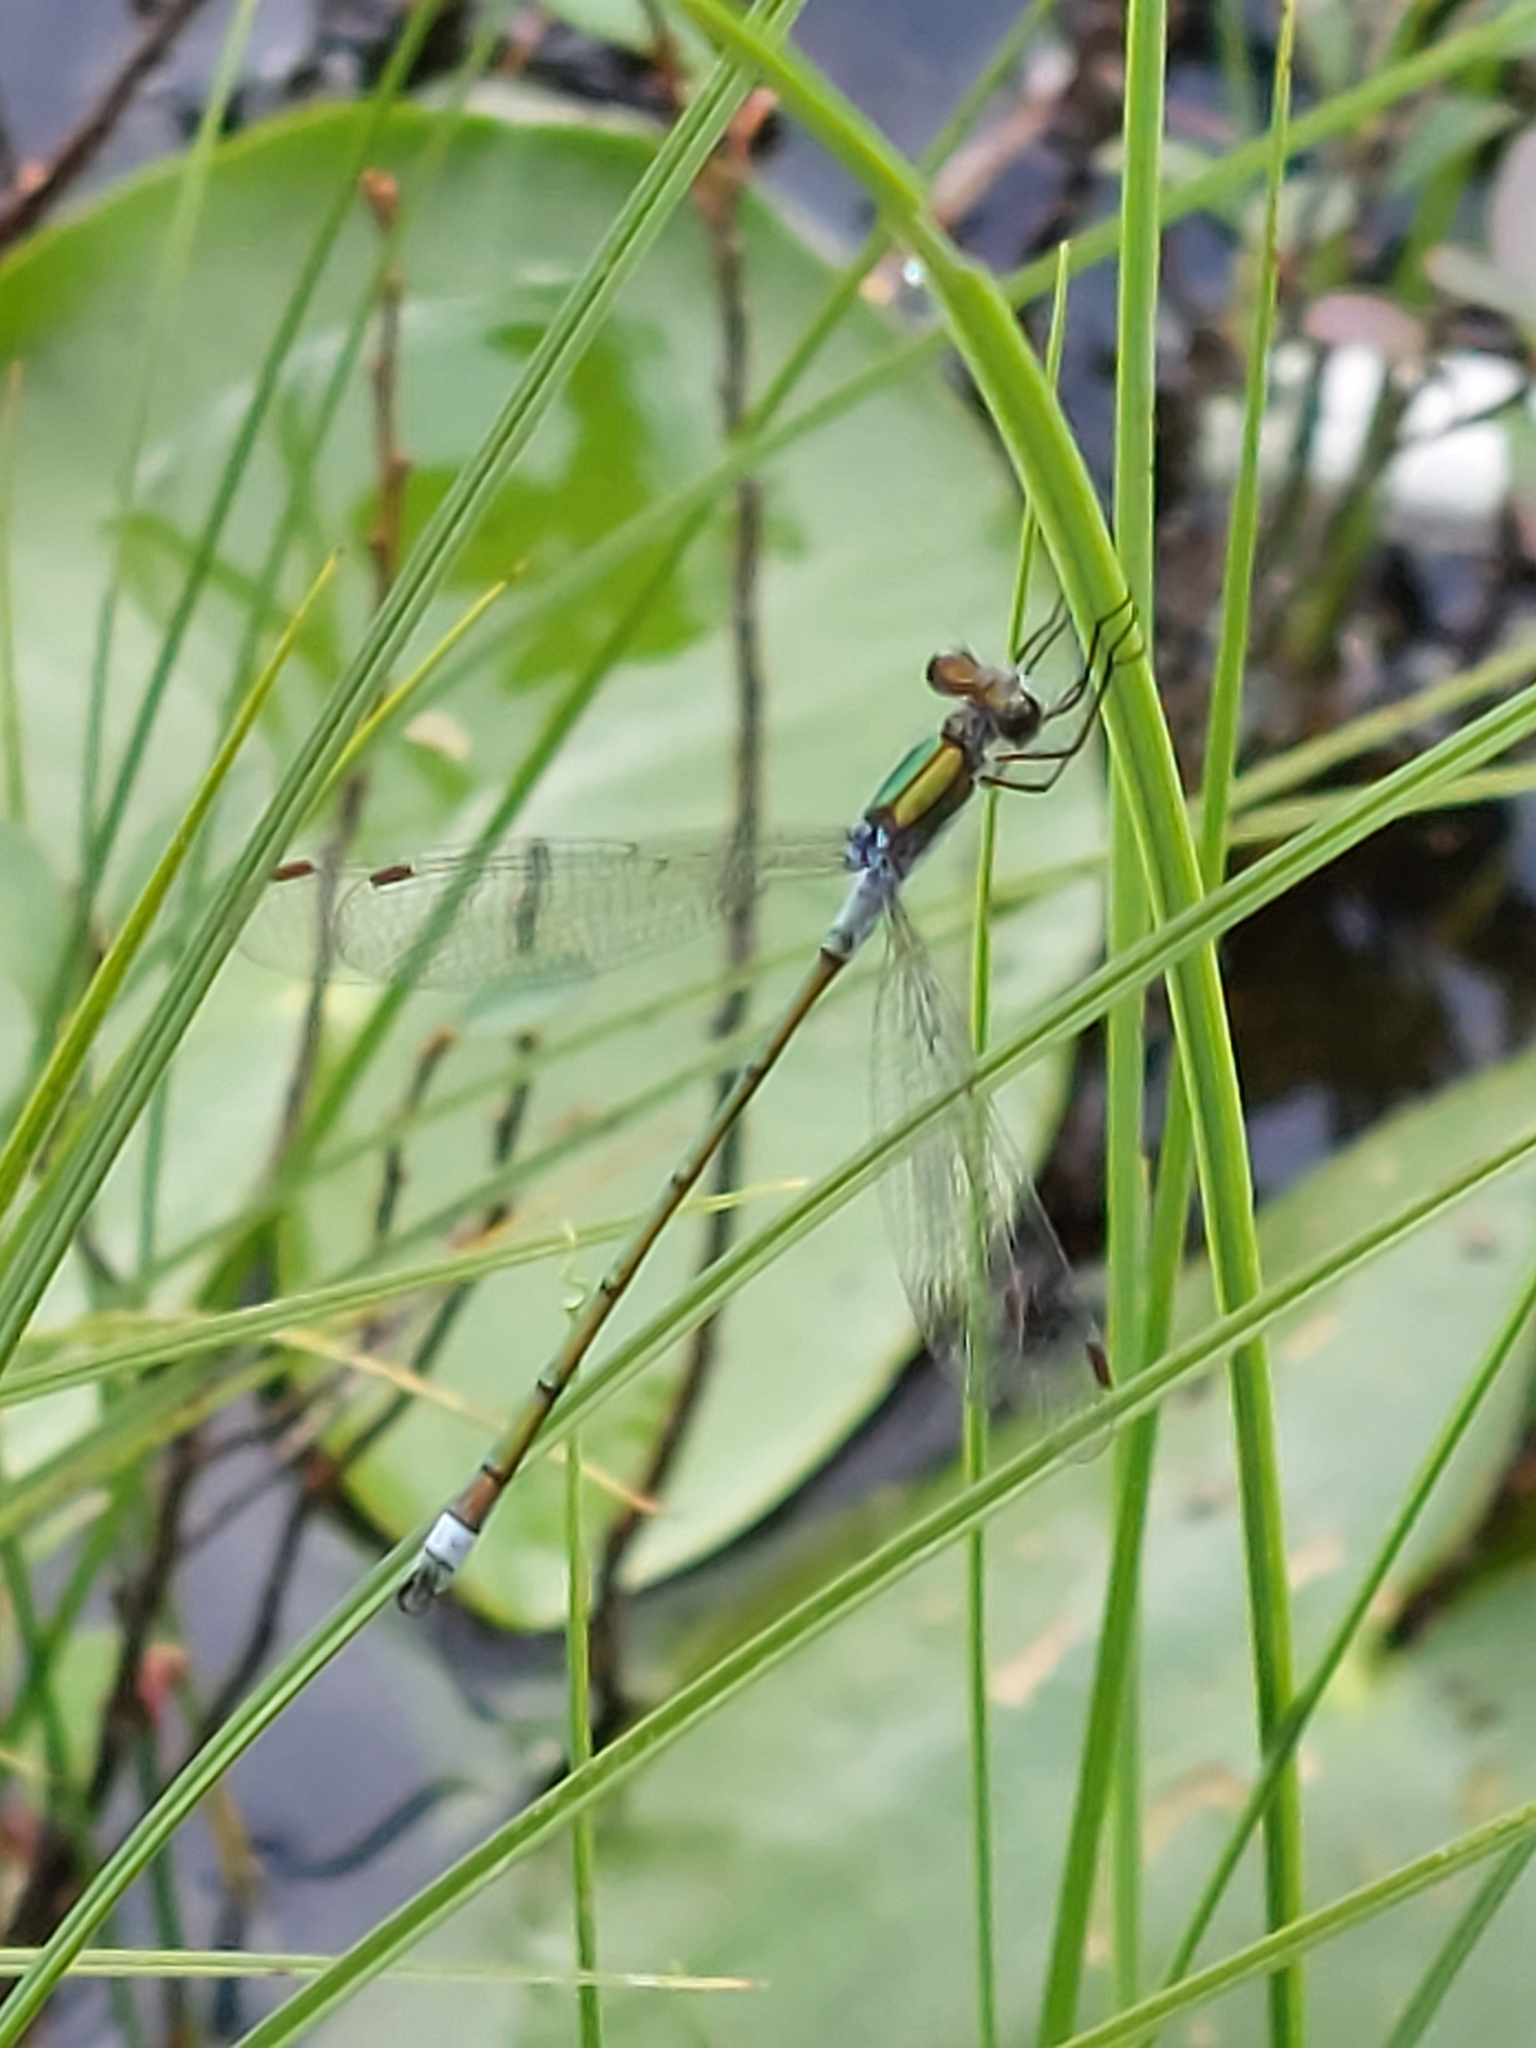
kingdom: Animalia
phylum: Arthropoda
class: Insecta
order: Odonata
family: Lestidae
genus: Lestes
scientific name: Lestes sponsa
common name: Common spreadwing
